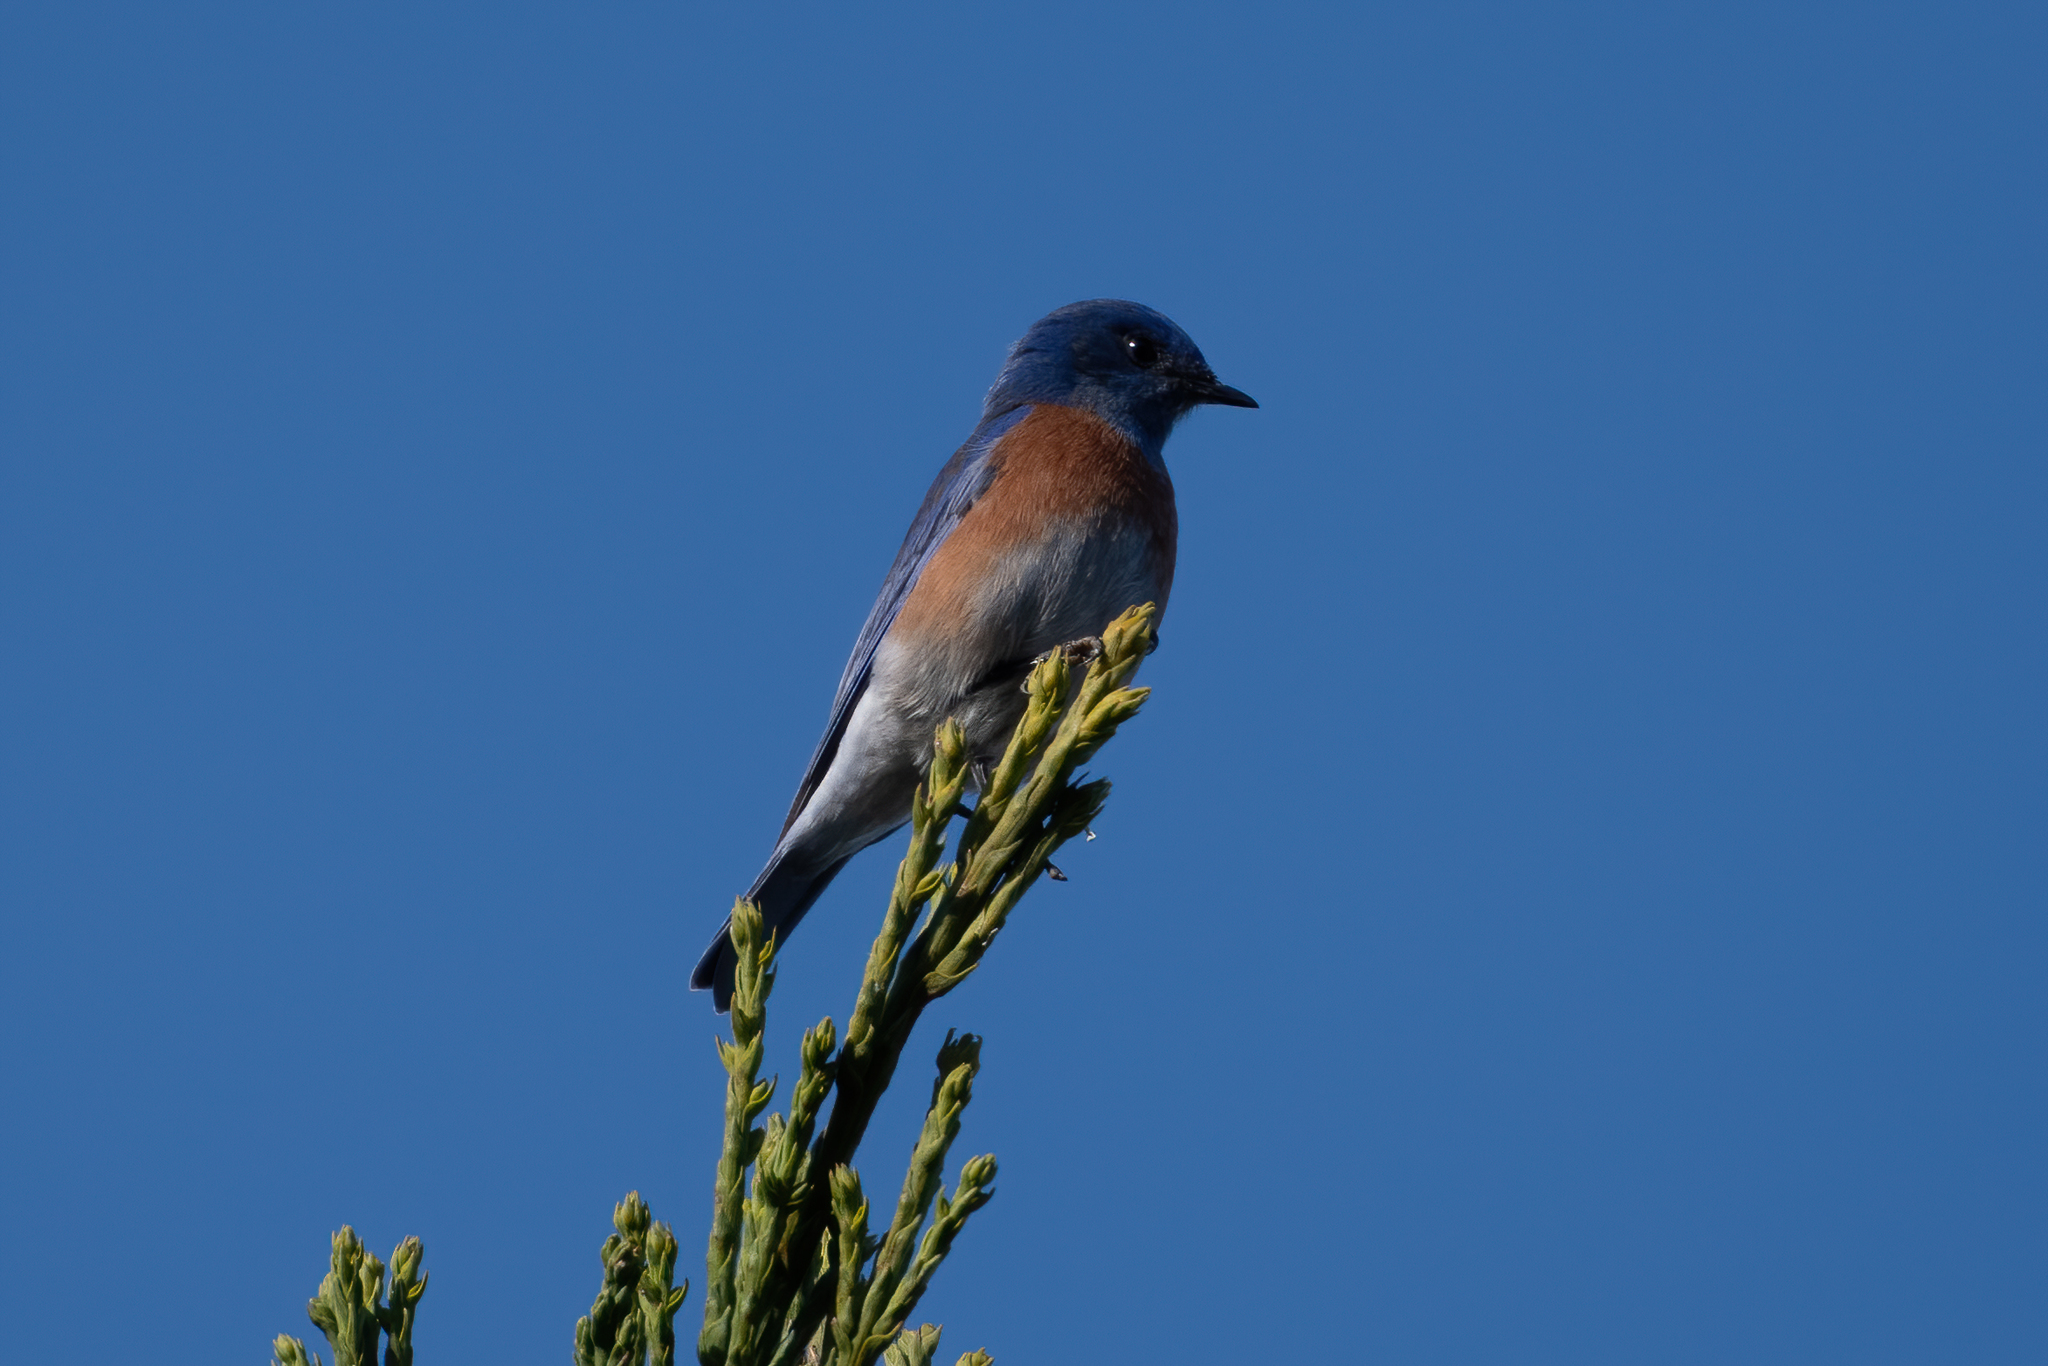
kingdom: Animalia
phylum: Chordata
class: Aves
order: Passeriformes
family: Turdidae
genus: Sialia
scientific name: Sialia mexicana
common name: Western bluebird
